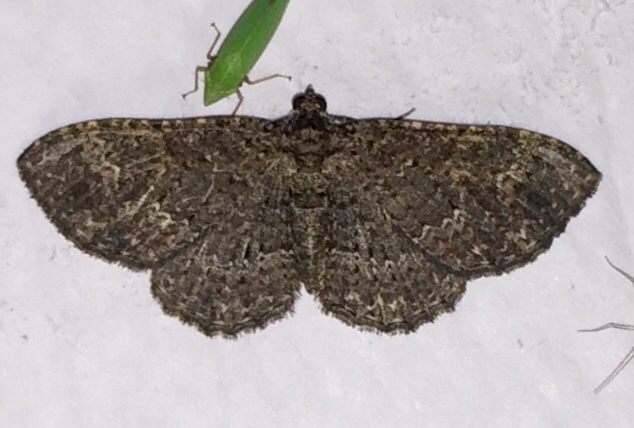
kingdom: Animalia
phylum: Arthropoda
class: Insecta
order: Lepidoptera
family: Geometridae
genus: Disclisioprocta
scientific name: Disclisioprocta stellata
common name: Somber carpet
